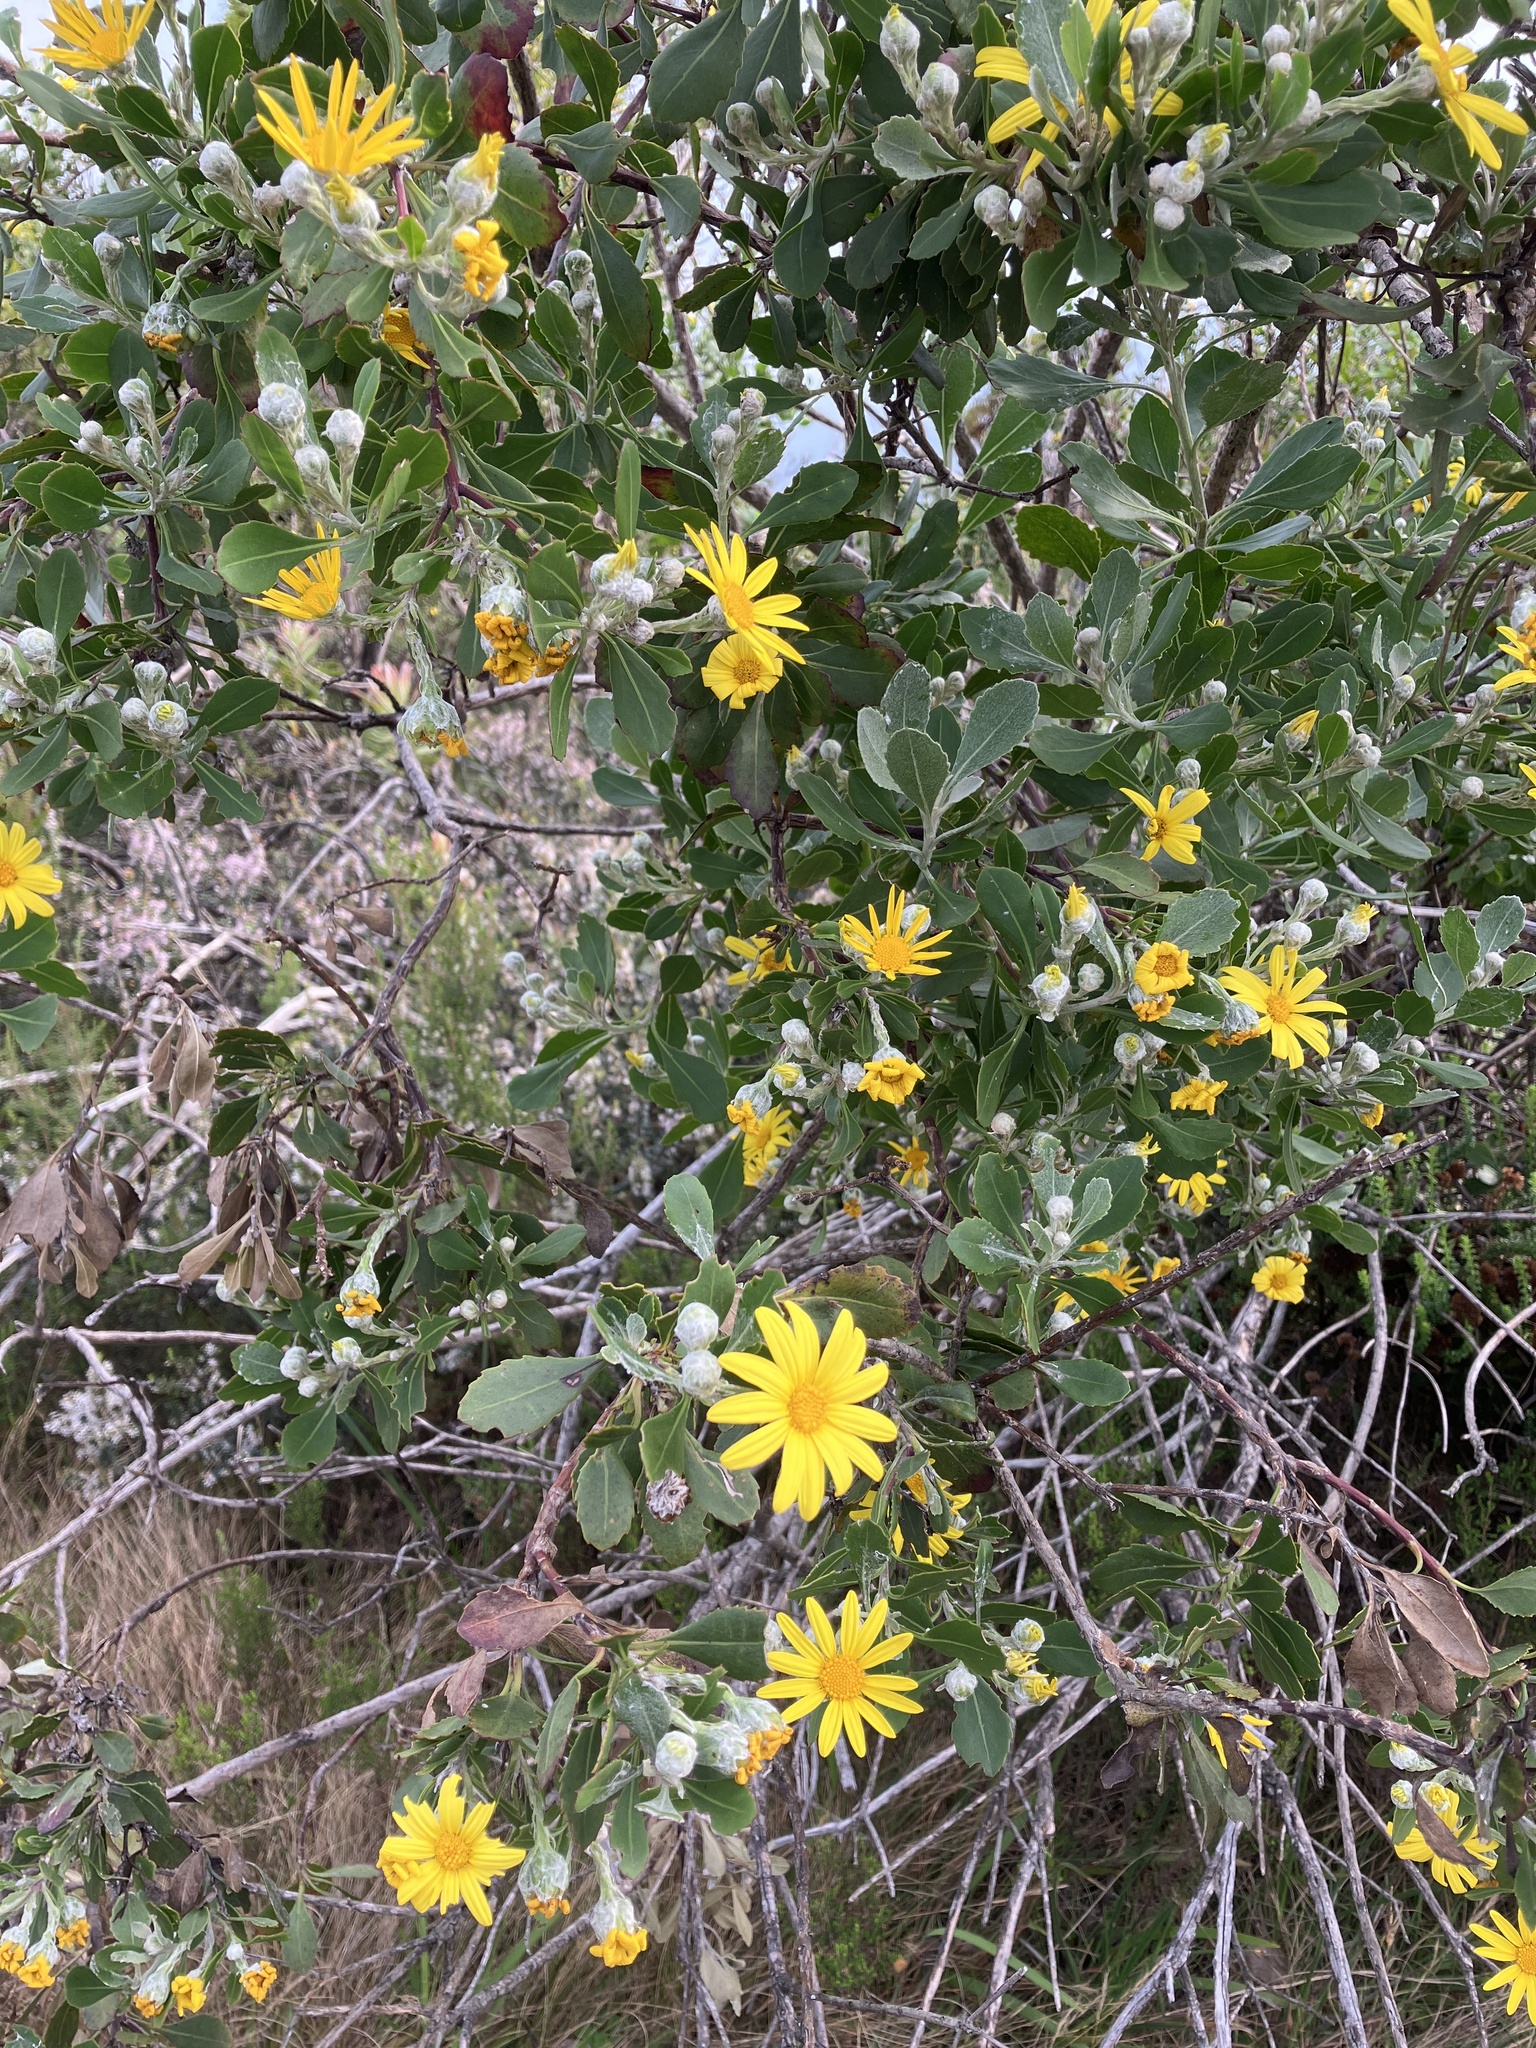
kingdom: Plantae
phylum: Tracheophyta
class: Magnoliopsida
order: Asterales
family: Asteraceae
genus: Osteospermum
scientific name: Osteospermum moniliferum
